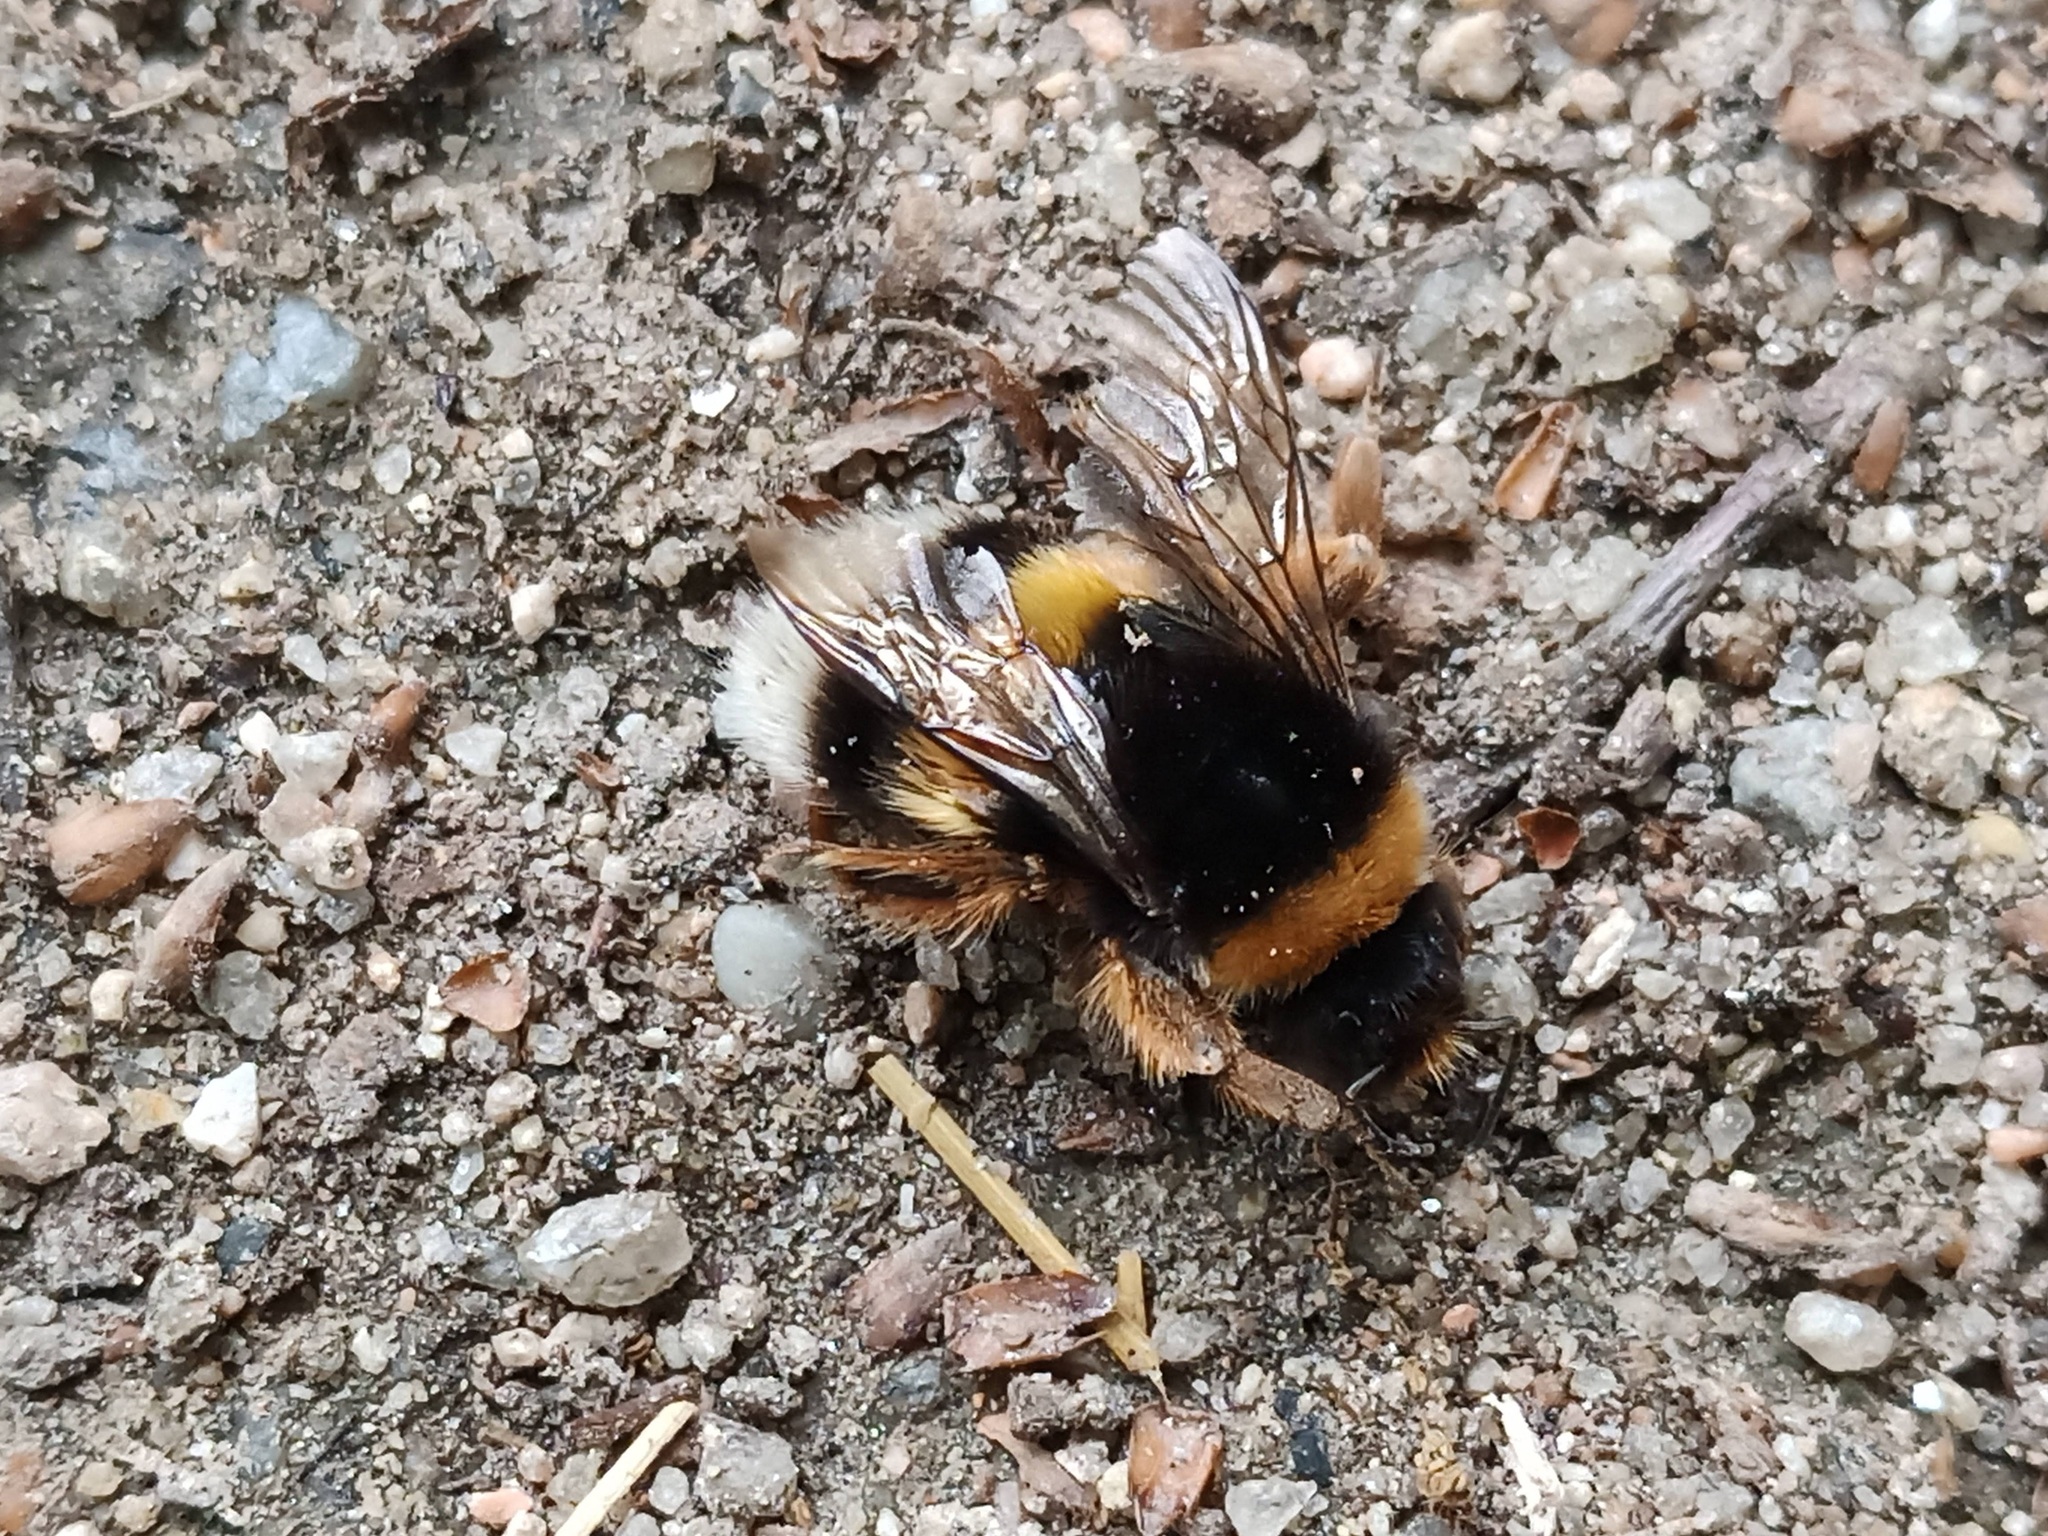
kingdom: Animalia
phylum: Arthropoda
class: Insecta
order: Hymenoptera
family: Apidae
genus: Bombus
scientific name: Bombus terrestris
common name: Buff-tailed bumblebee
